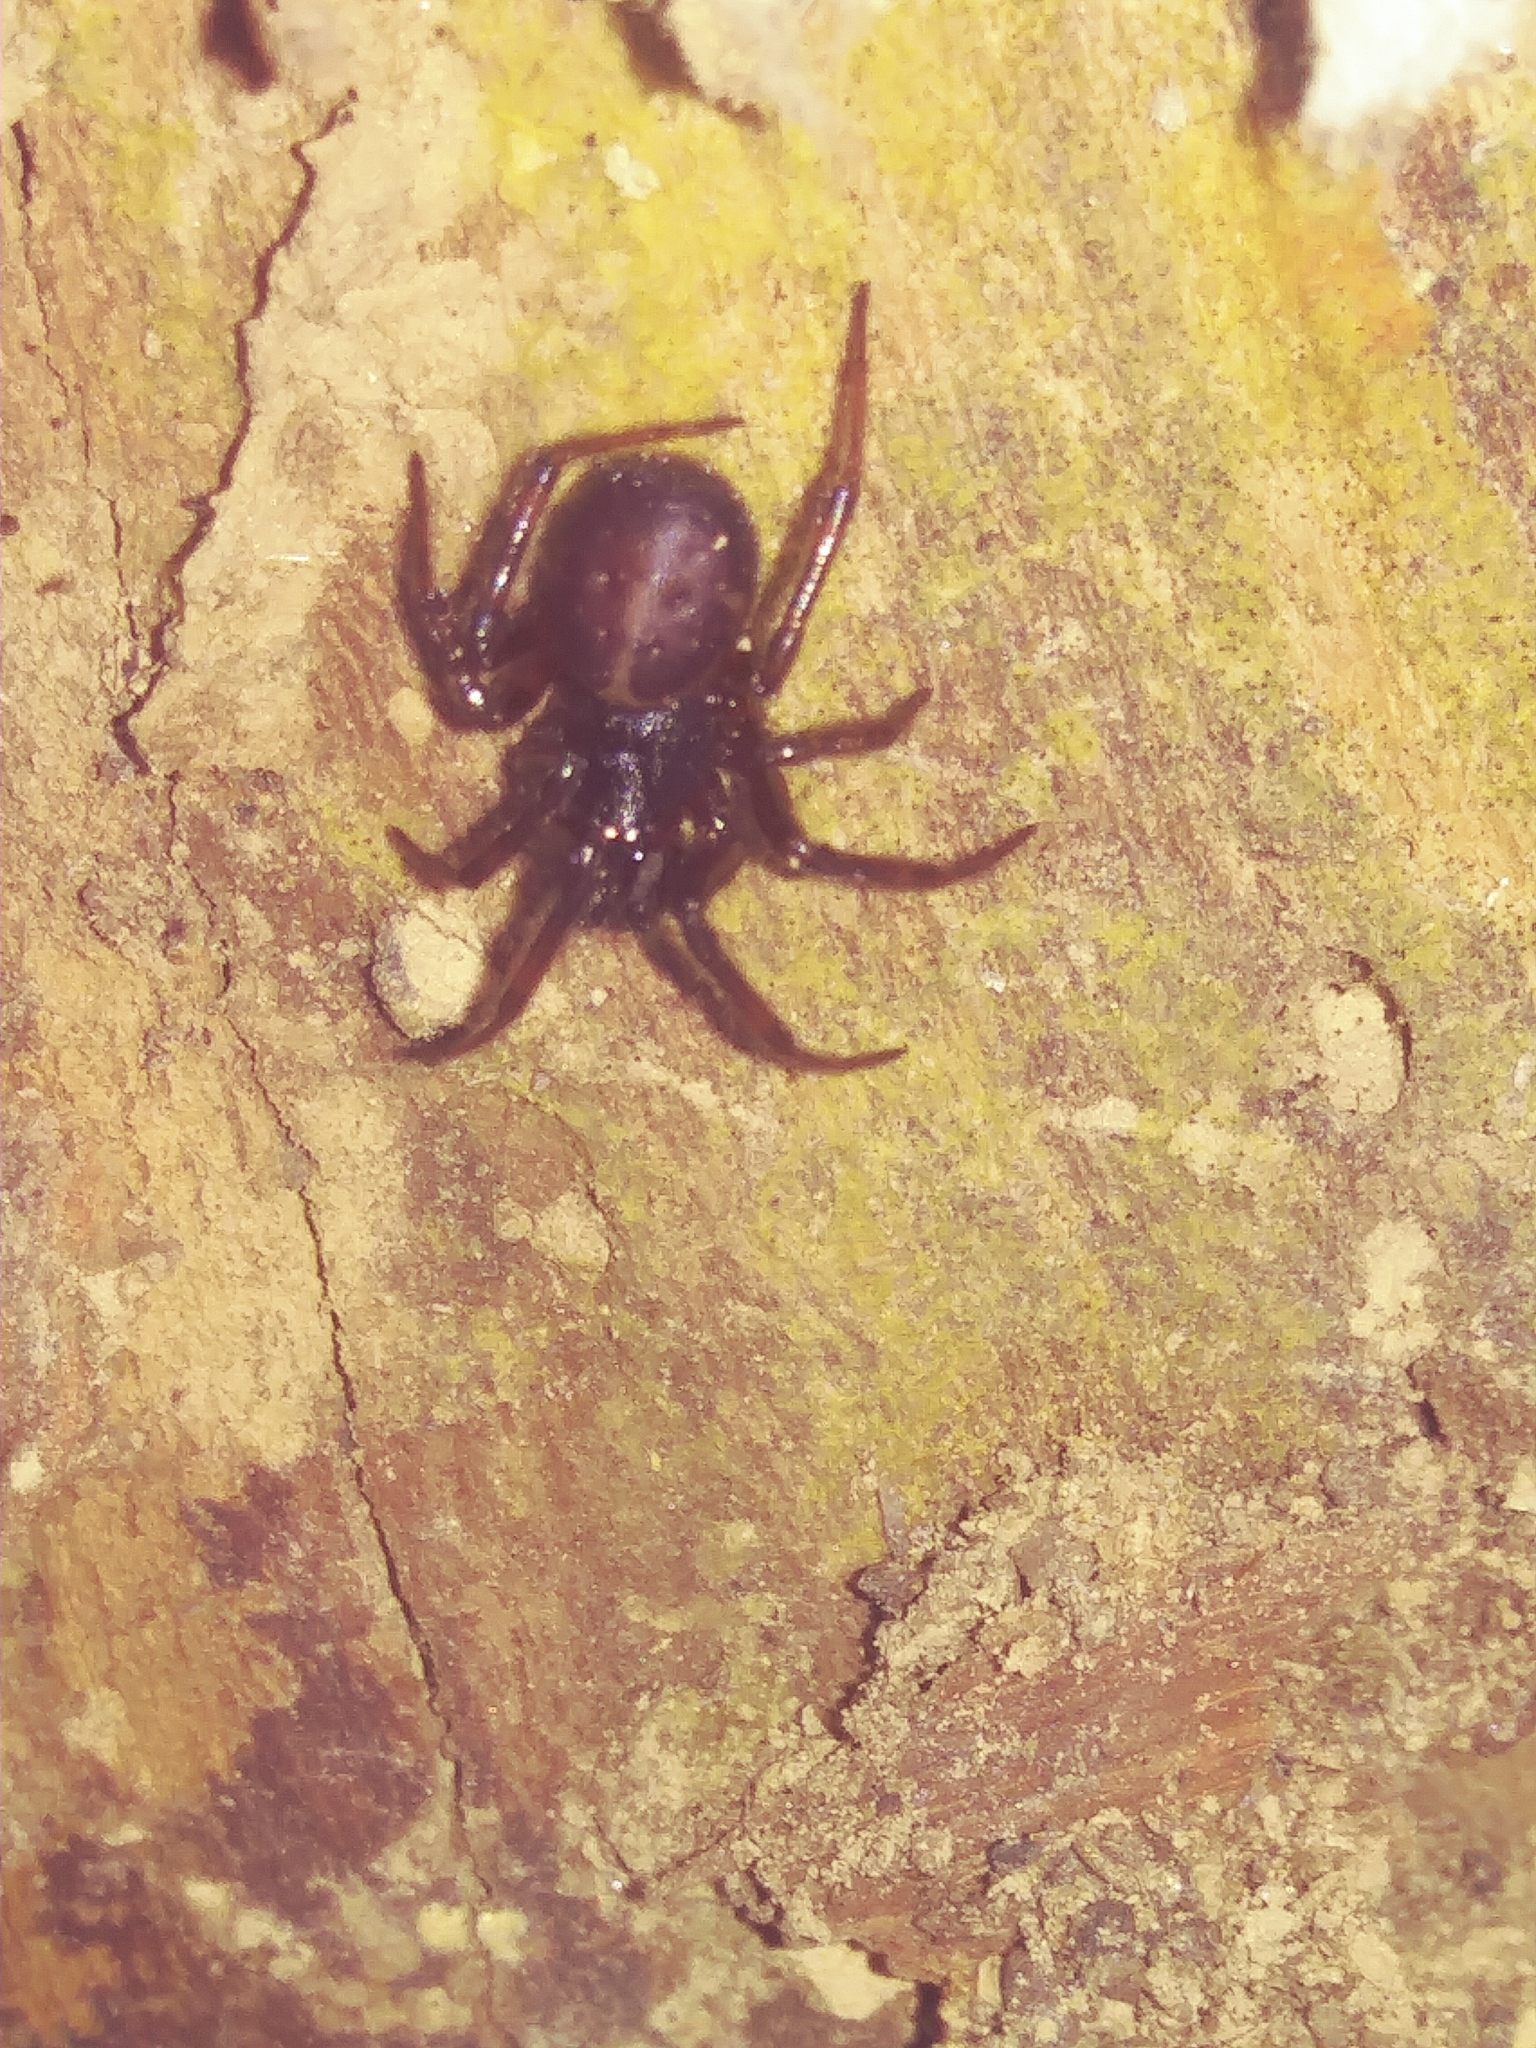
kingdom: Animalia
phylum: Arthropoda
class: Arachnida
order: Araneae
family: Theridiidae
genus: Steatoda
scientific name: Steatoda borealis
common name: Boreal combfoot
